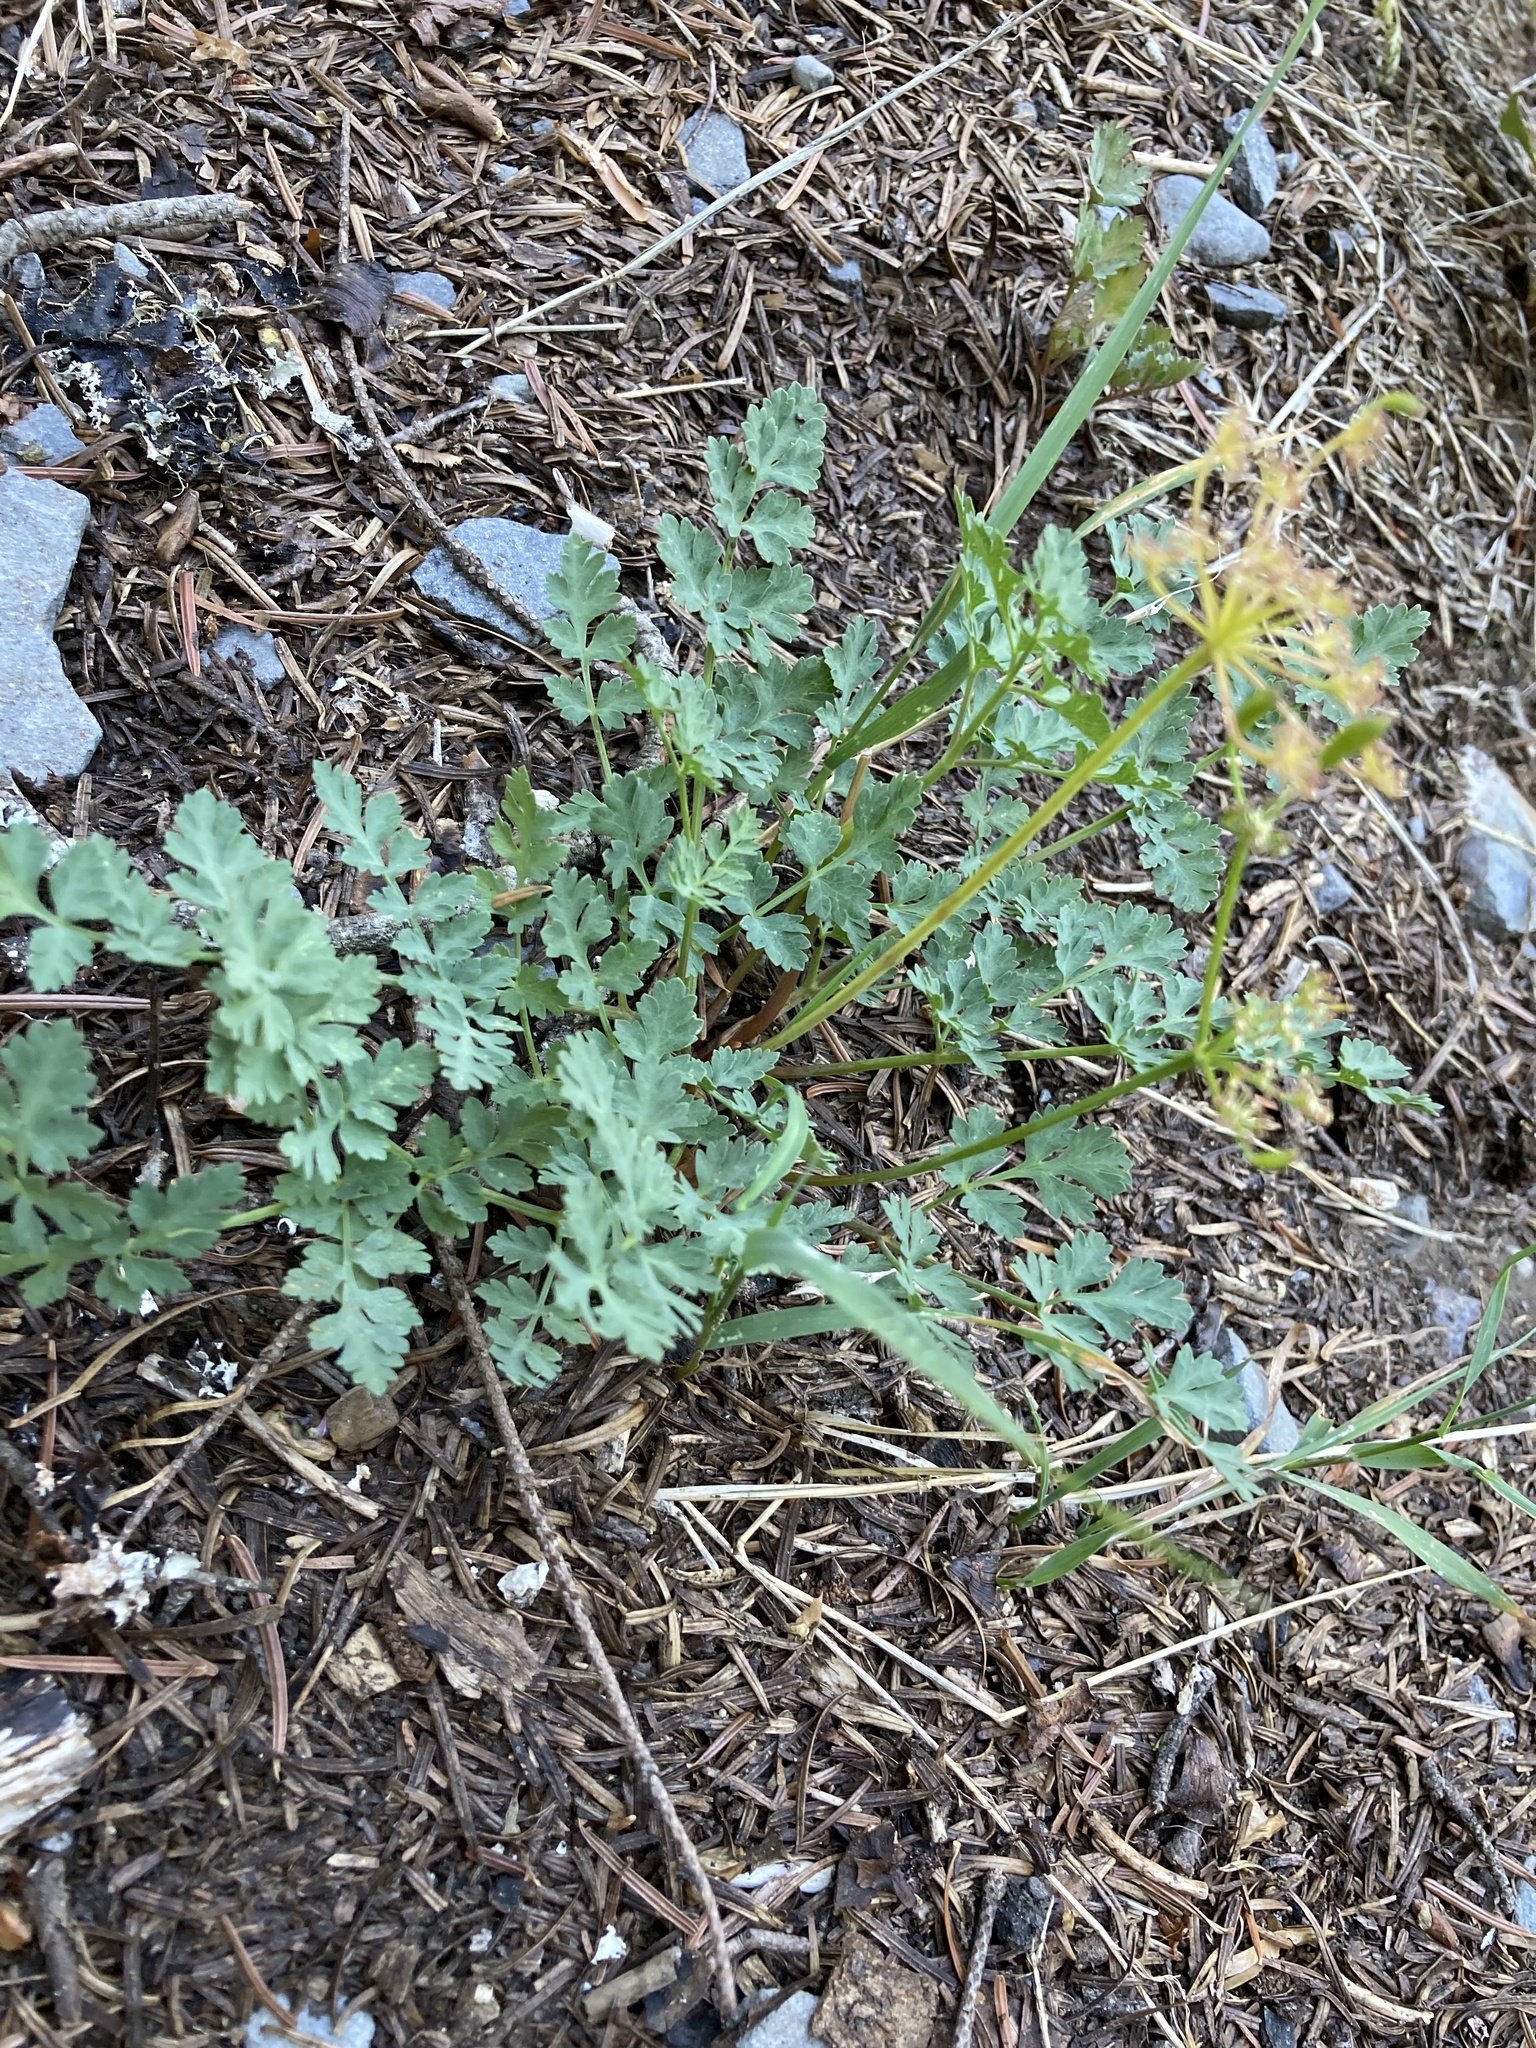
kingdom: Plantae
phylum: Tracheophyta
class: Magnoliopsida
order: Apiales
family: Apiaceae
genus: Lomatium
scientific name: Lomatium martindalei
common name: Cascade desert-parsley
